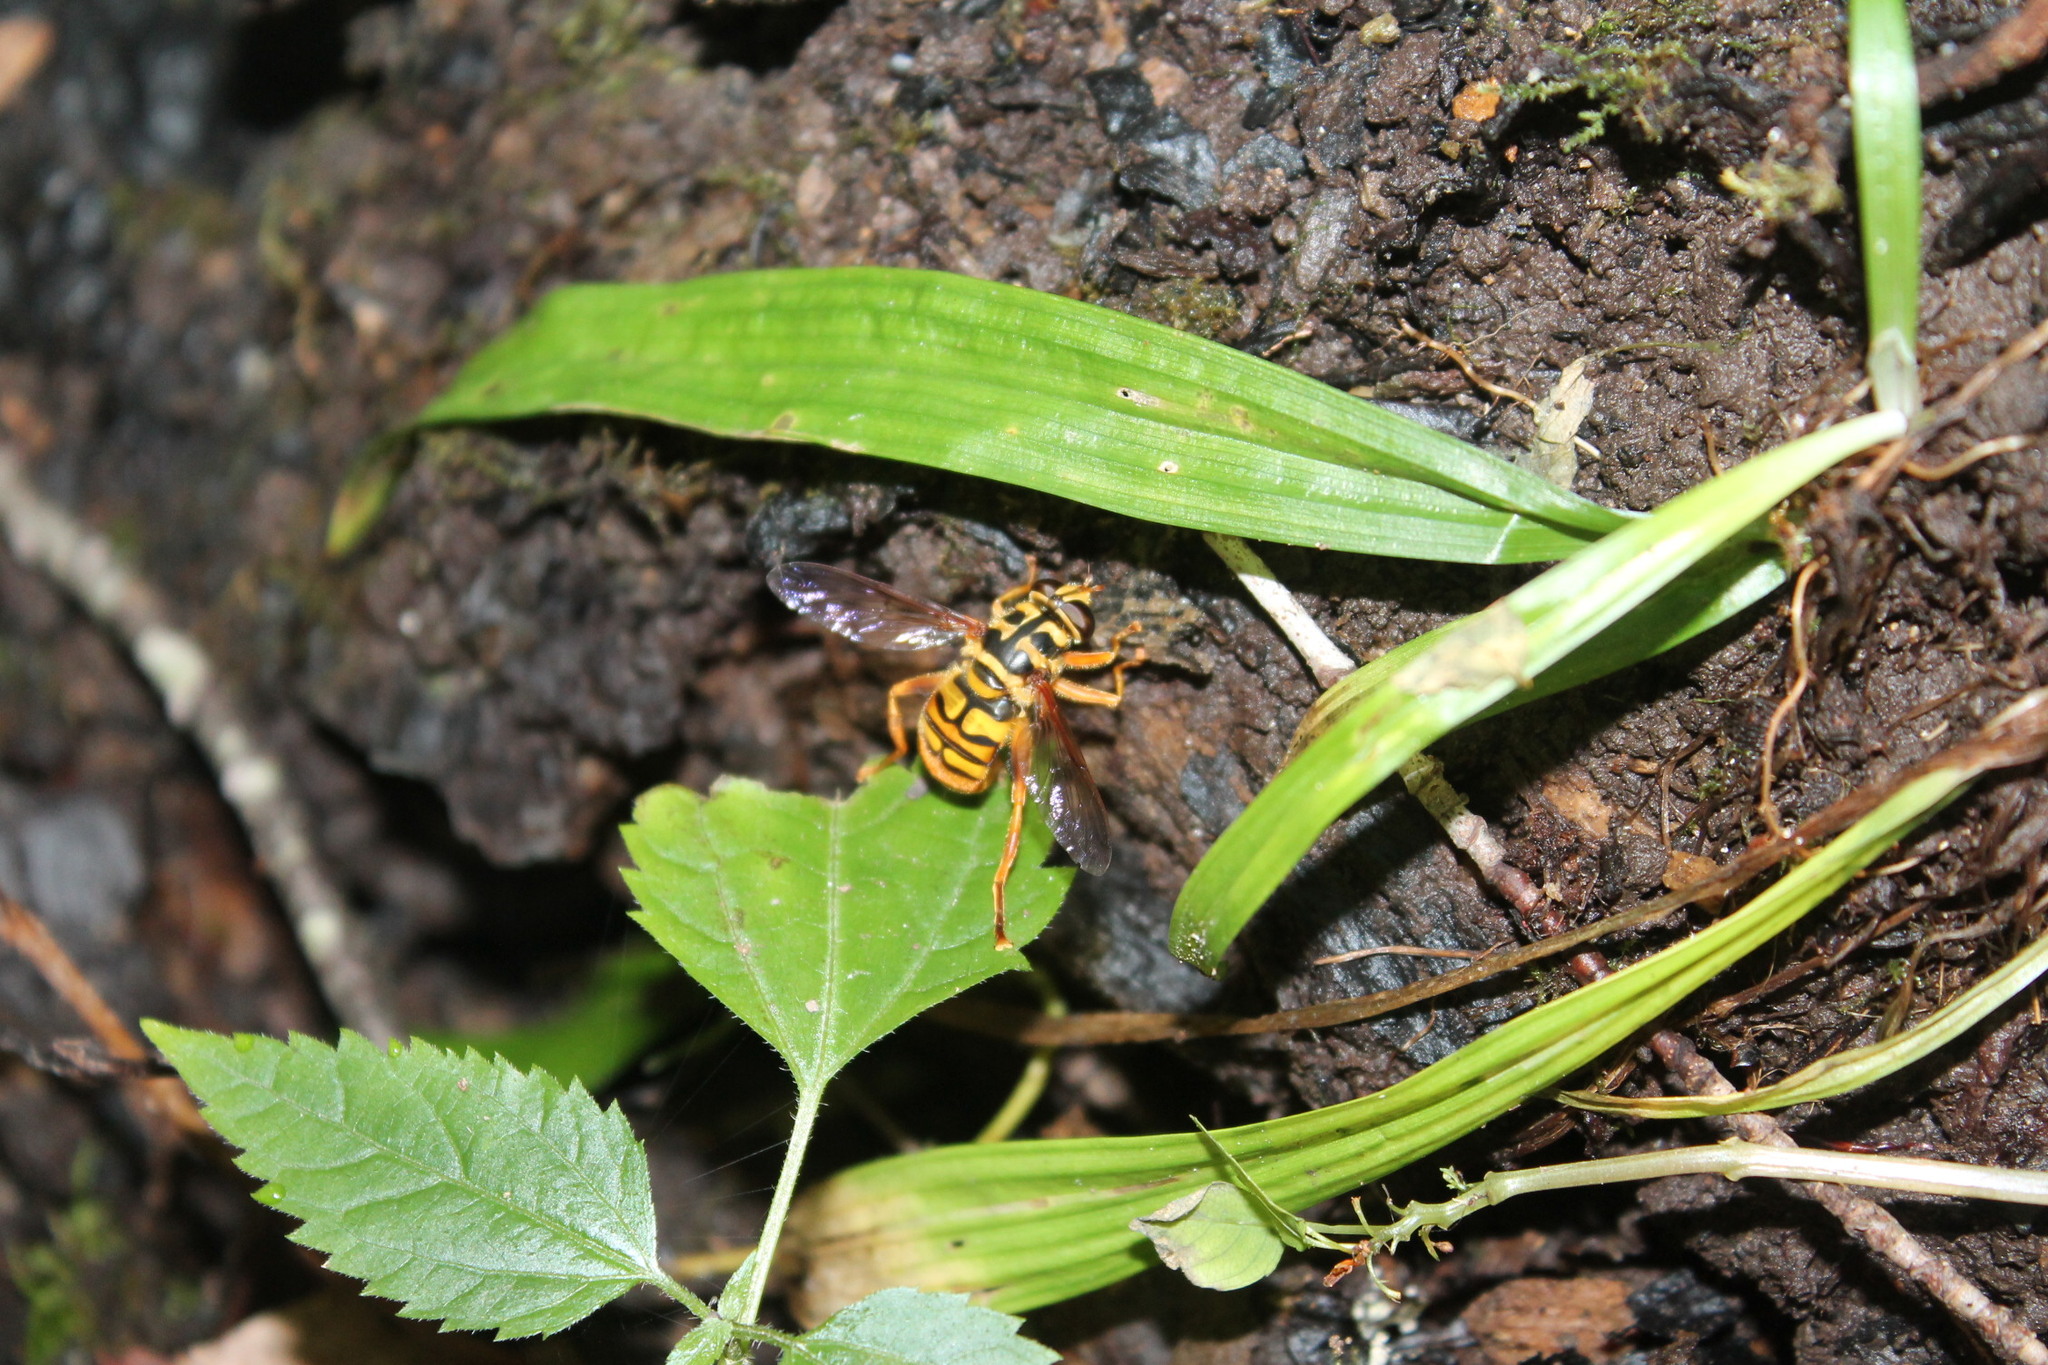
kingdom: Animalia
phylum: Arthropoda
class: Insecta
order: Diptera
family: Syrphidae
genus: Milesia
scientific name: Milesia virginiensis
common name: Virginia giant
